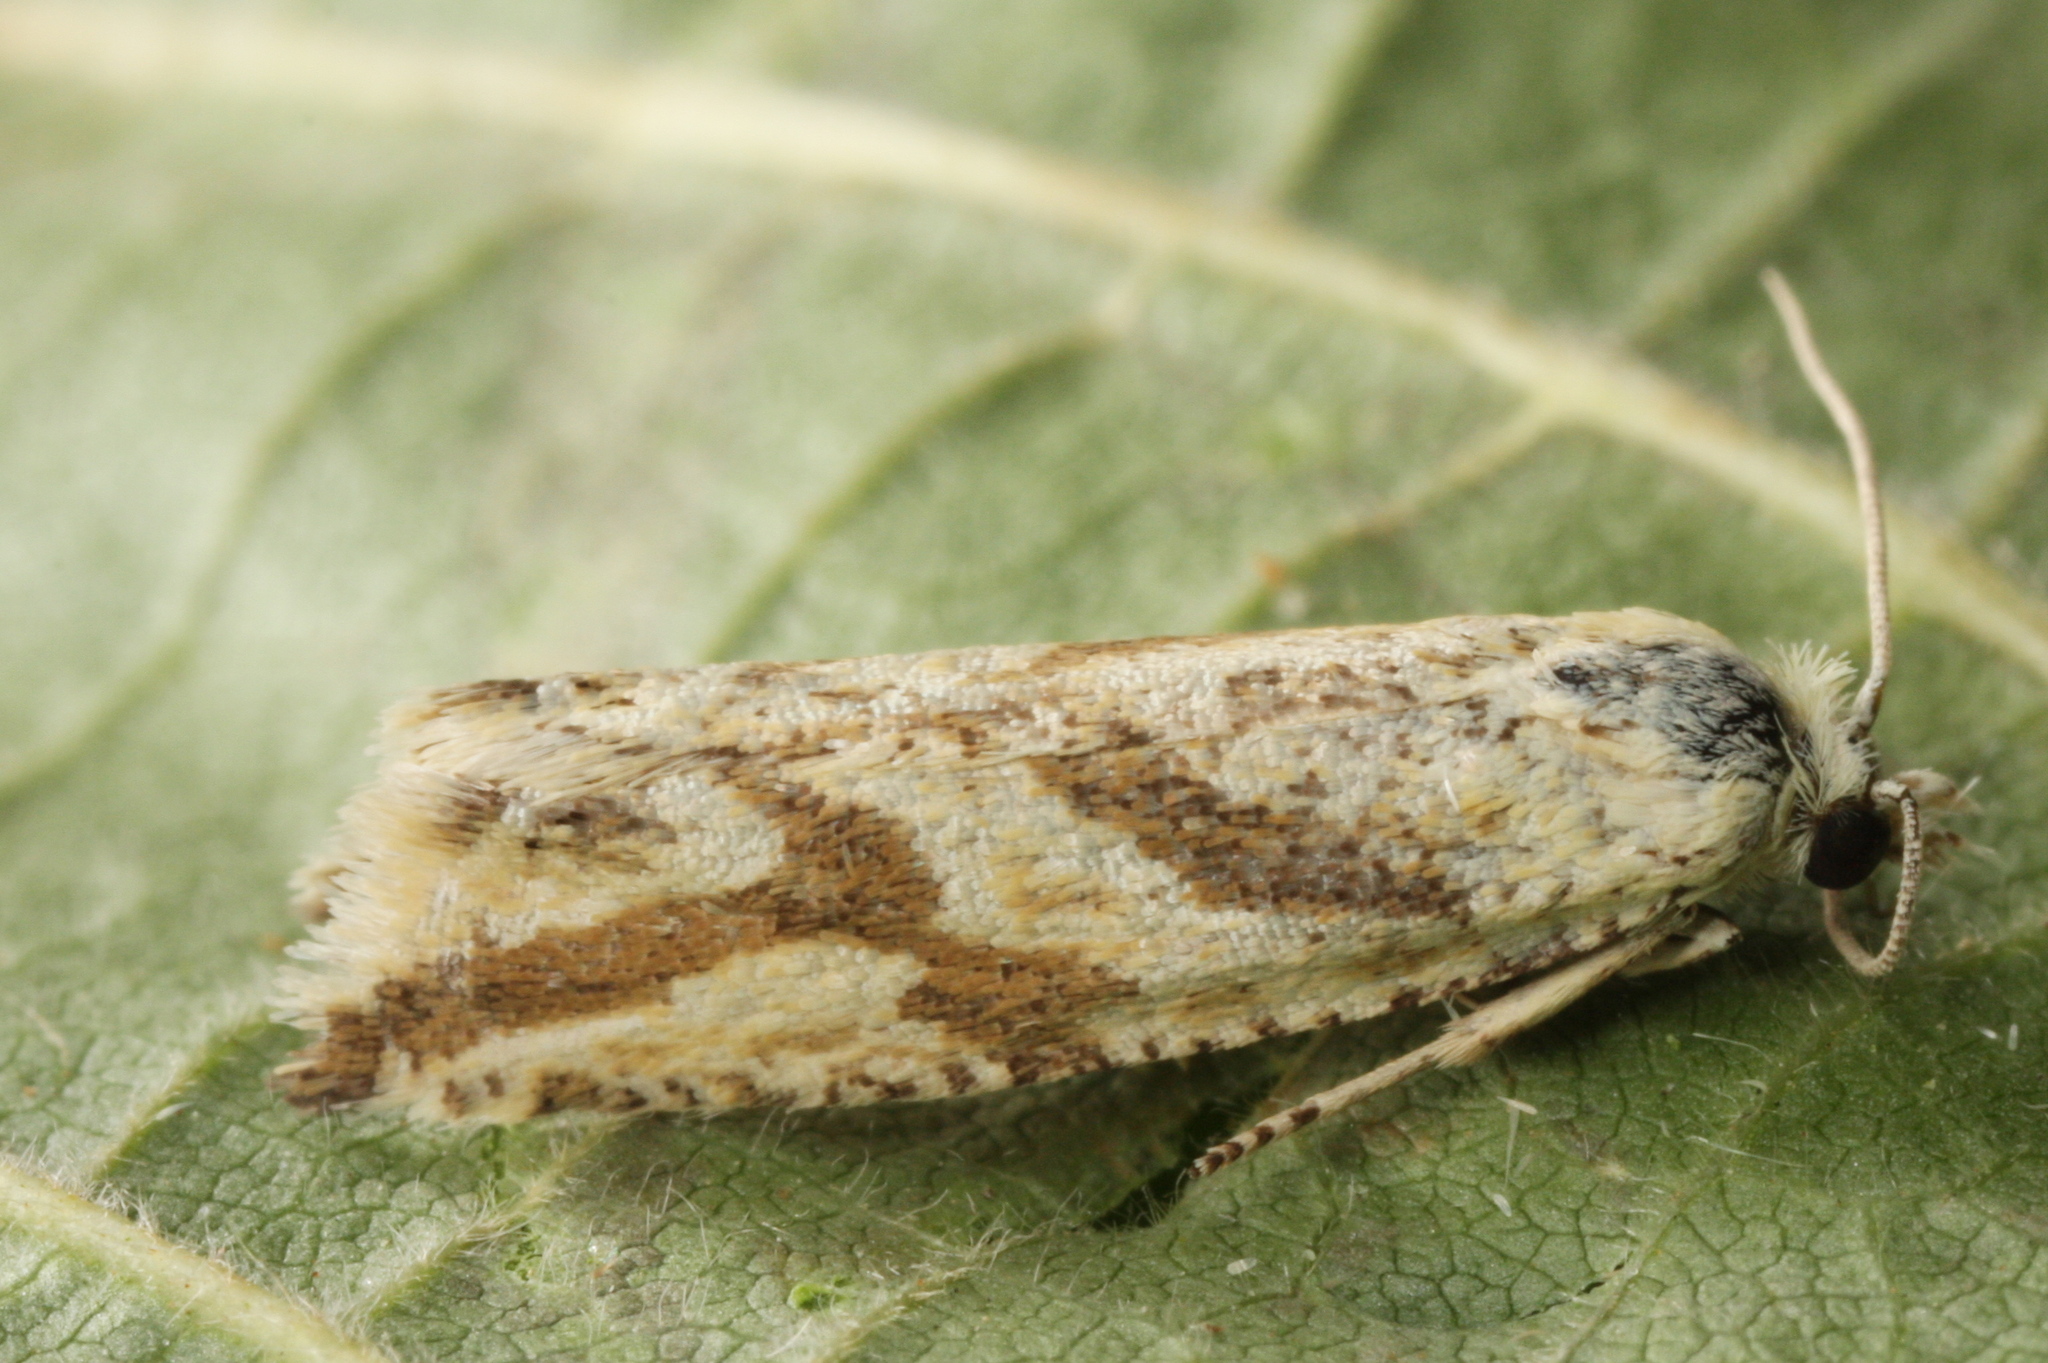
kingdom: Animalia
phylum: Arthropoda
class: Insecta
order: Lepidoptera
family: Tortricidae
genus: Thiodia
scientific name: Thiodia citrana
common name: Lemon bell
